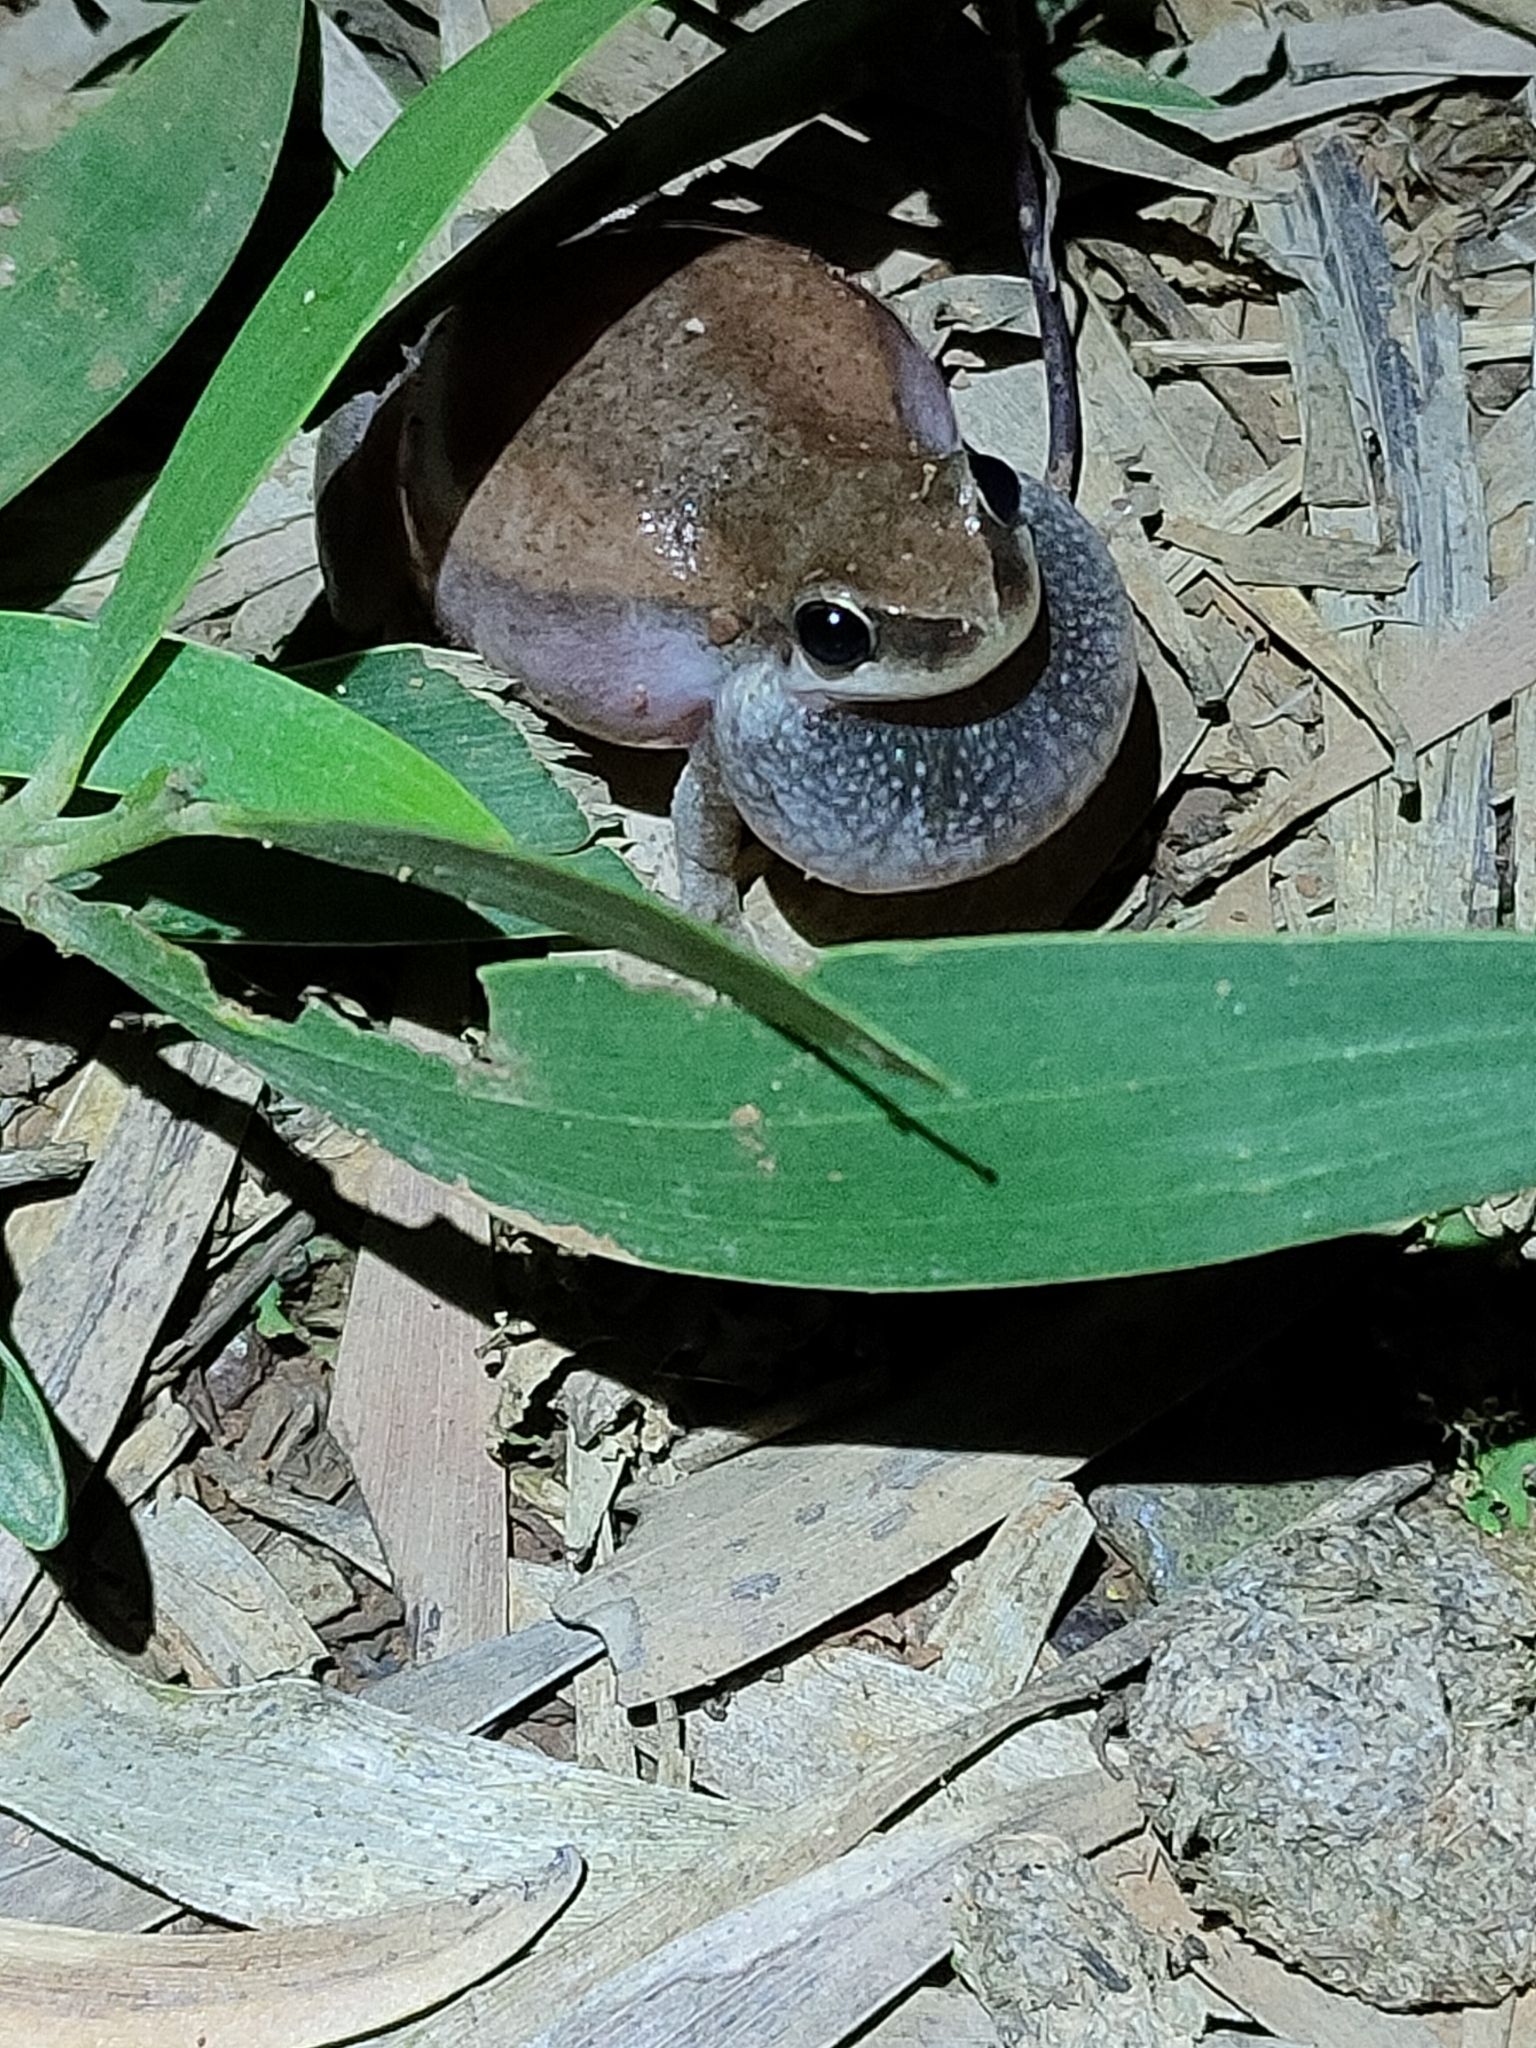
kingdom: Animalia
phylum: Chordata
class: Amphibia
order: Anura
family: Pelodryadidae
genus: Litoria
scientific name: Litoria rubella
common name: Desert tree frog
